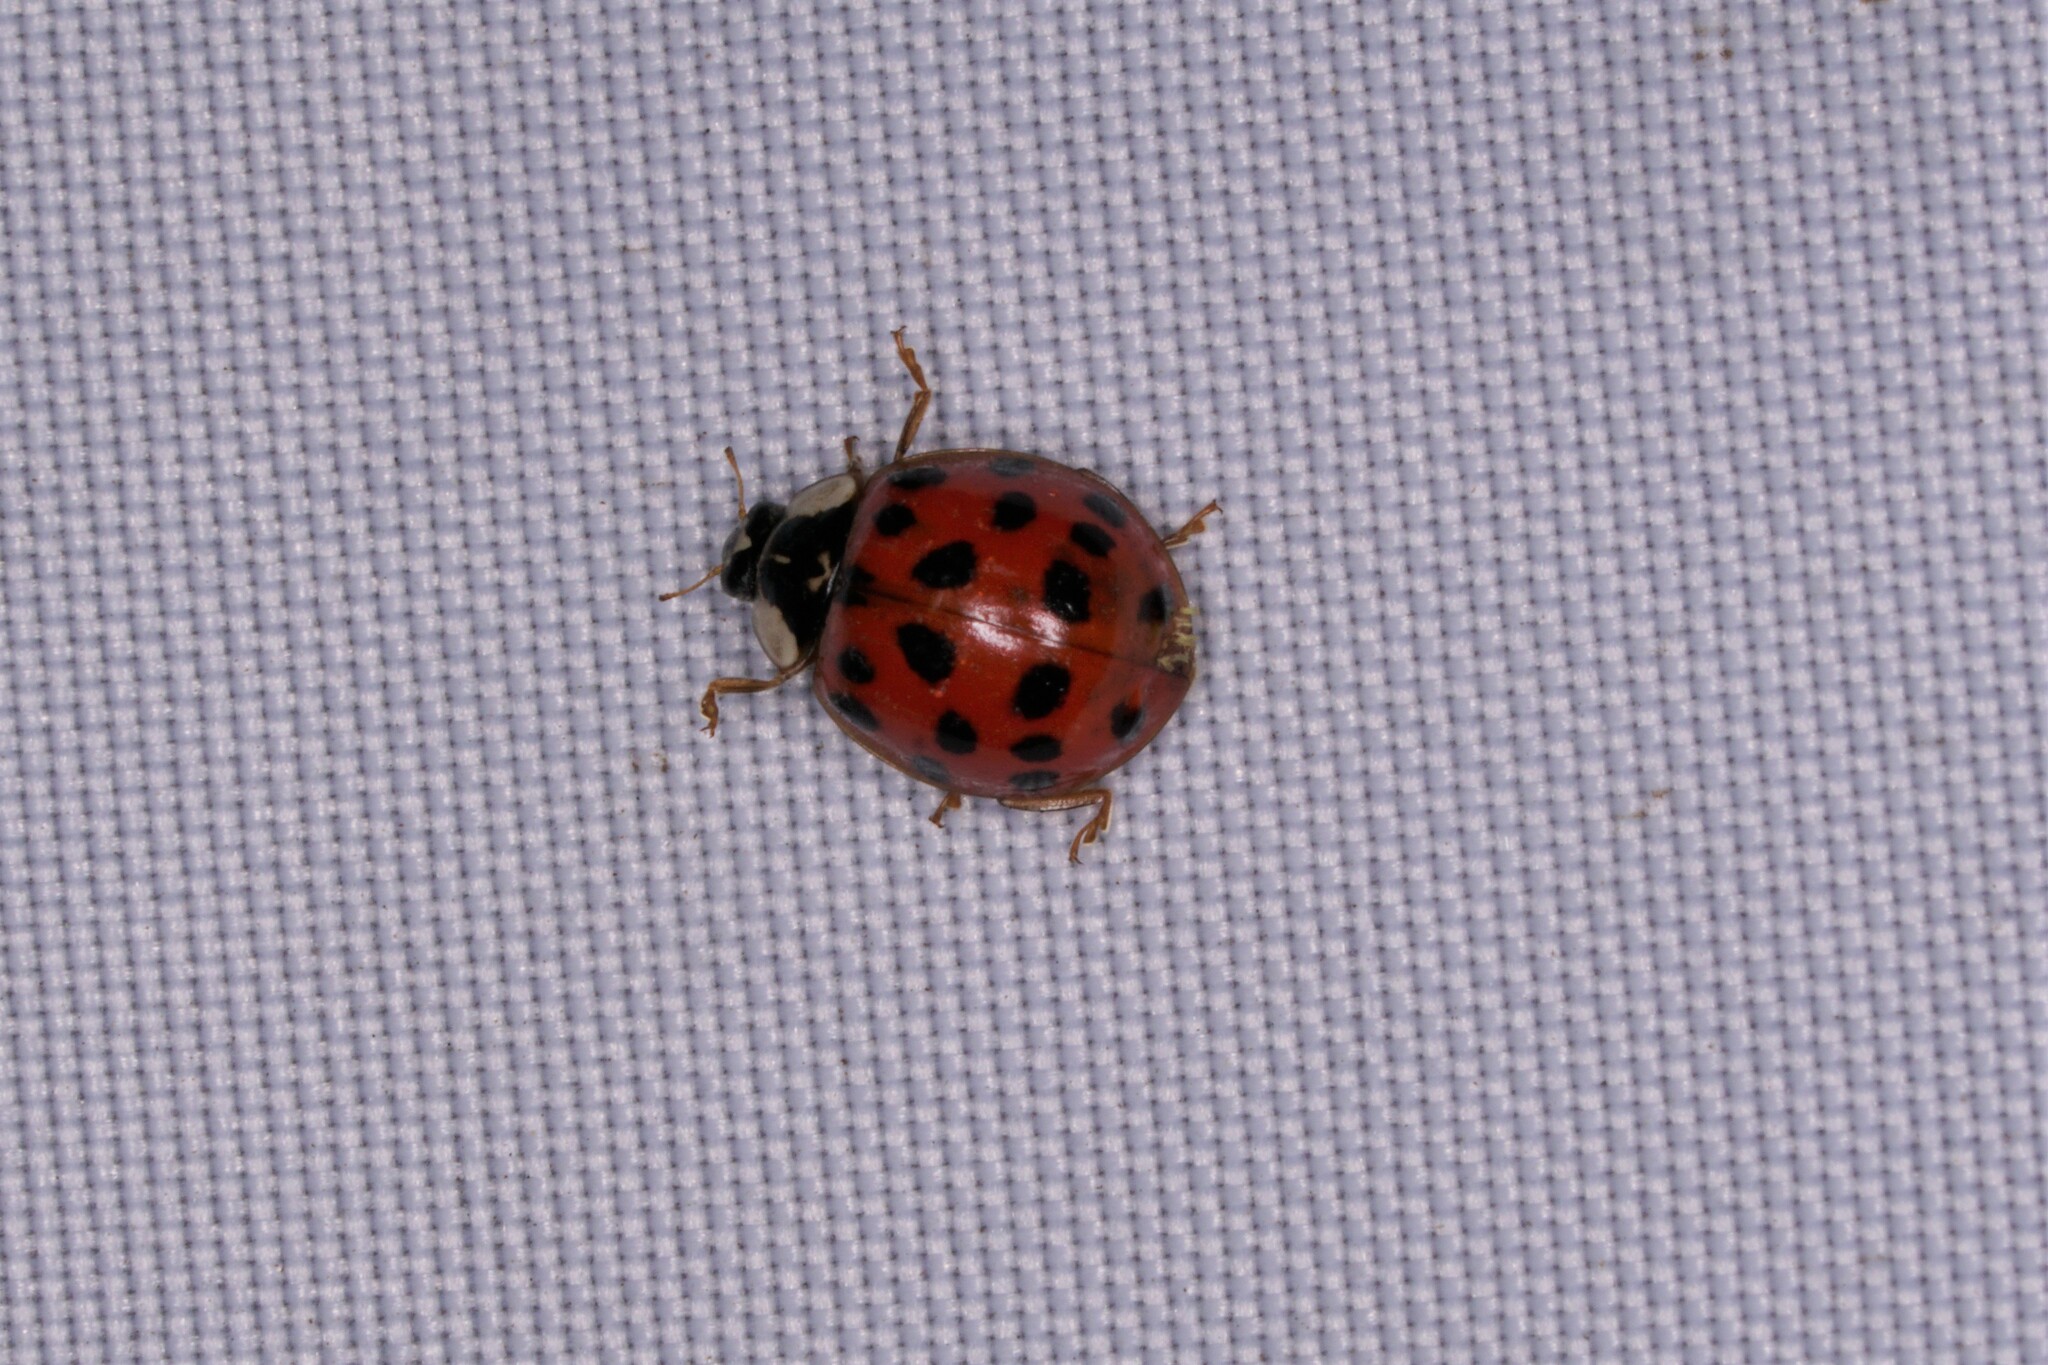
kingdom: Animalia
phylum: Arthropoda
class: Insecta
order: Coleoptera
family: Coccinellidae
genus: Harmonia
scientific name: Harmonia axyridis
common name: Harlequin ladybird
